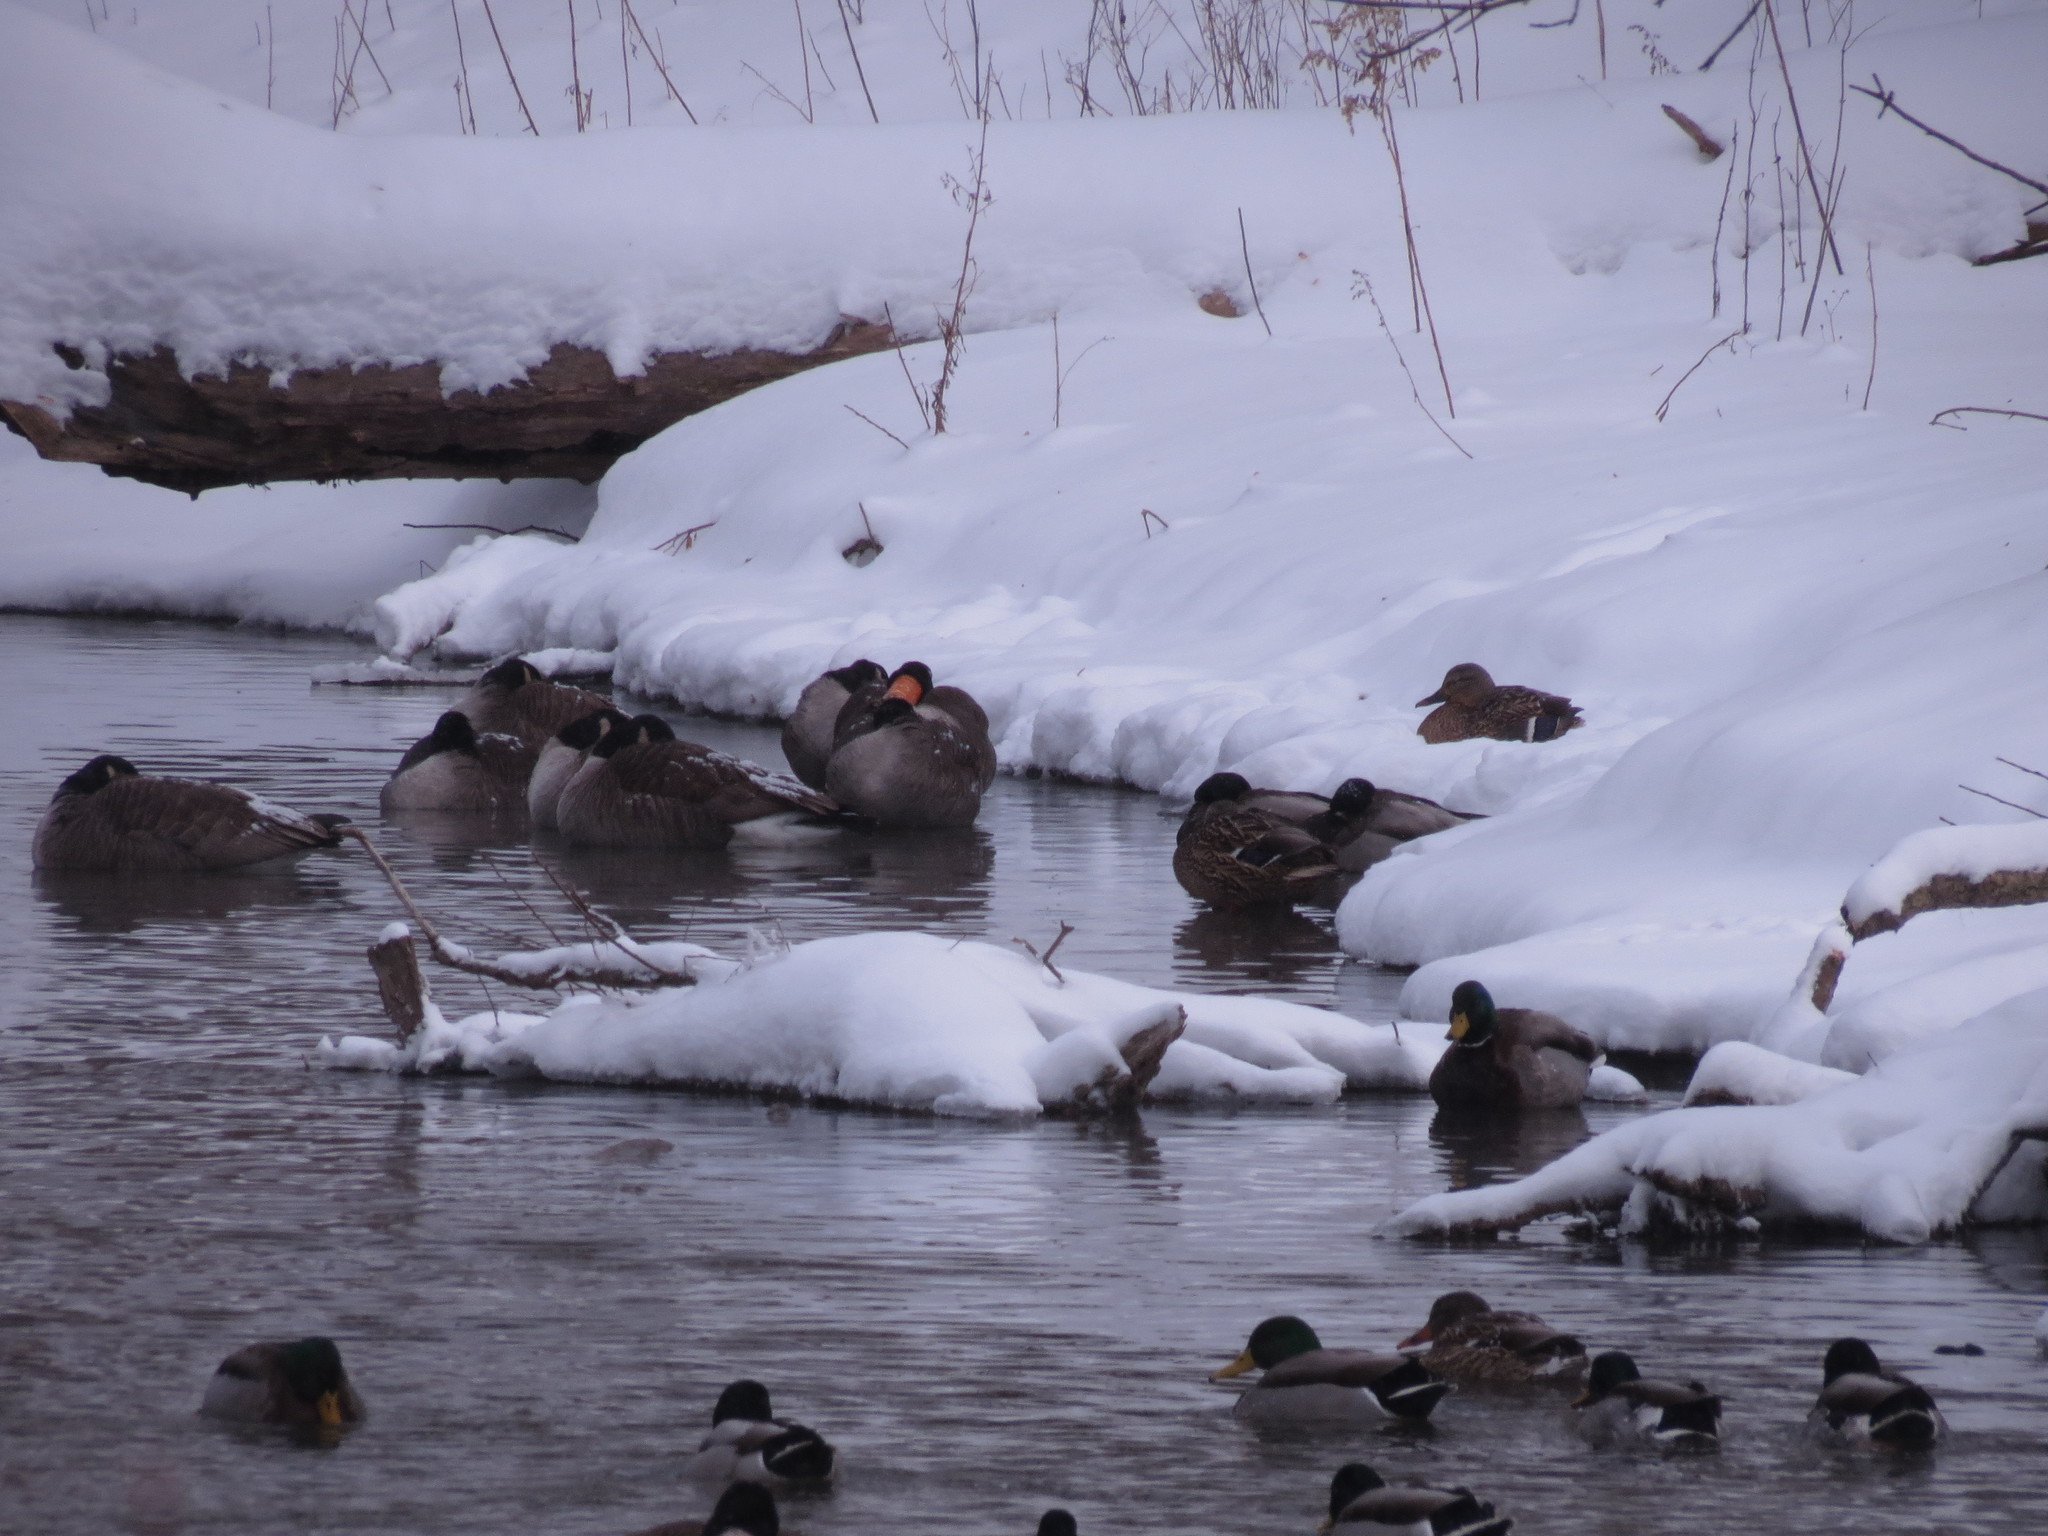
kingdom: Animalia
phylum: Chordata
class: Aves
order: Anseriformes
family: Anatidae
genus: Anas
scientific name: Anas platyrhynchos
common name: Mallard
